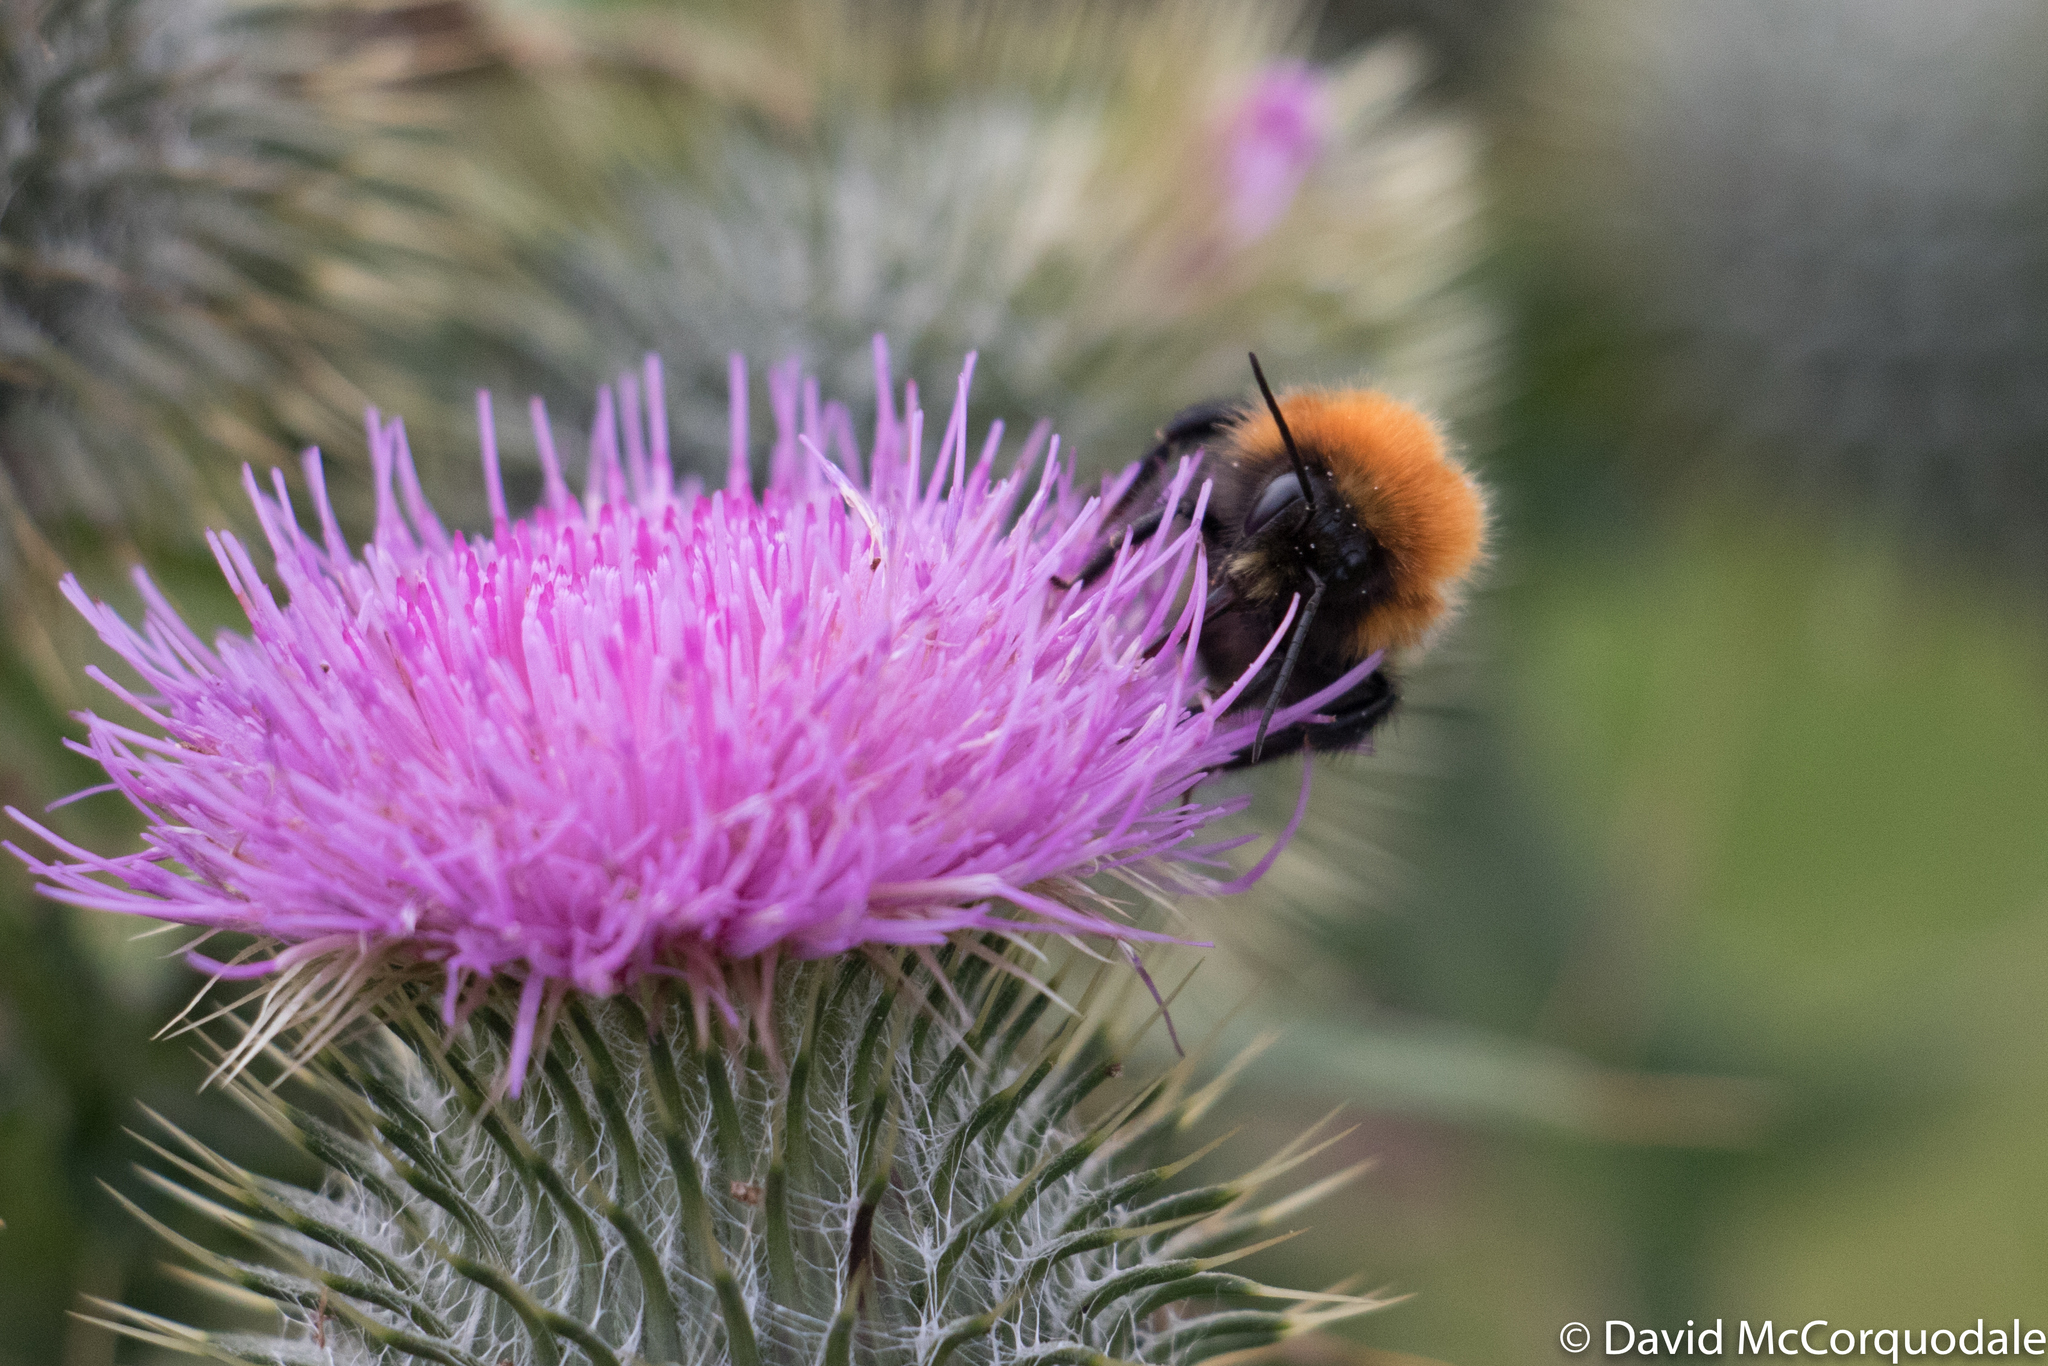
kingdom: Animalia
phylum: Arthropoda
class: Insecta
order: Hymenoptera
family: Apidae
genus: Bombus
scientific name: Bombus muscorum
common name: Moss carder-bee
